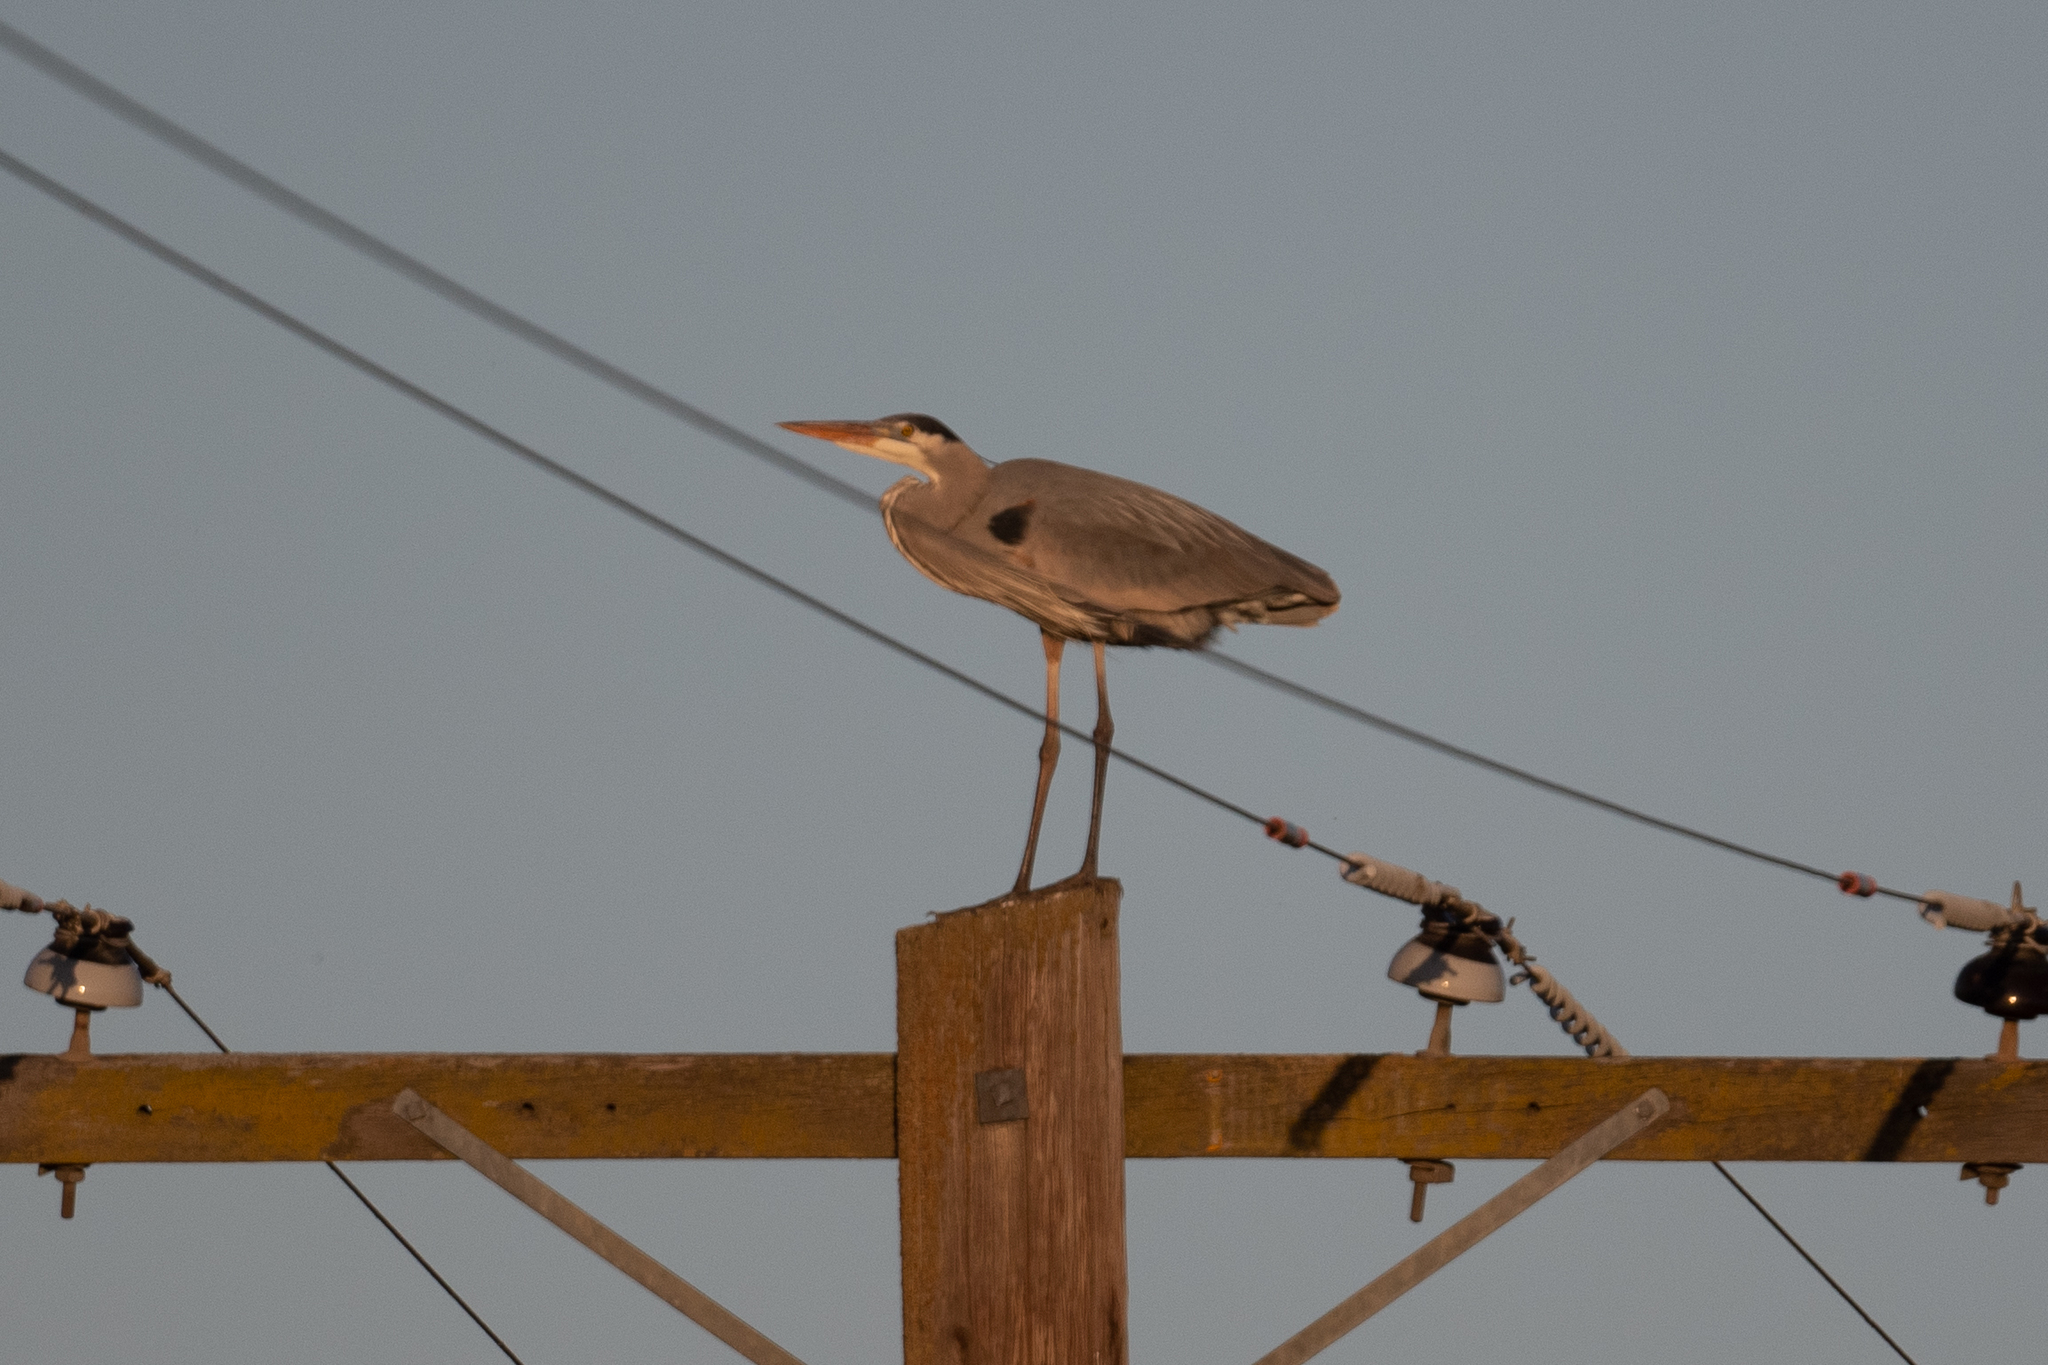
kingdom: Animalia
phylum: Chordata
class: Aves
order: Pelecaniformes
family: Ardeidae
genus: Ardea
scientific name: Ardea herodias
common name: Great blue heron
